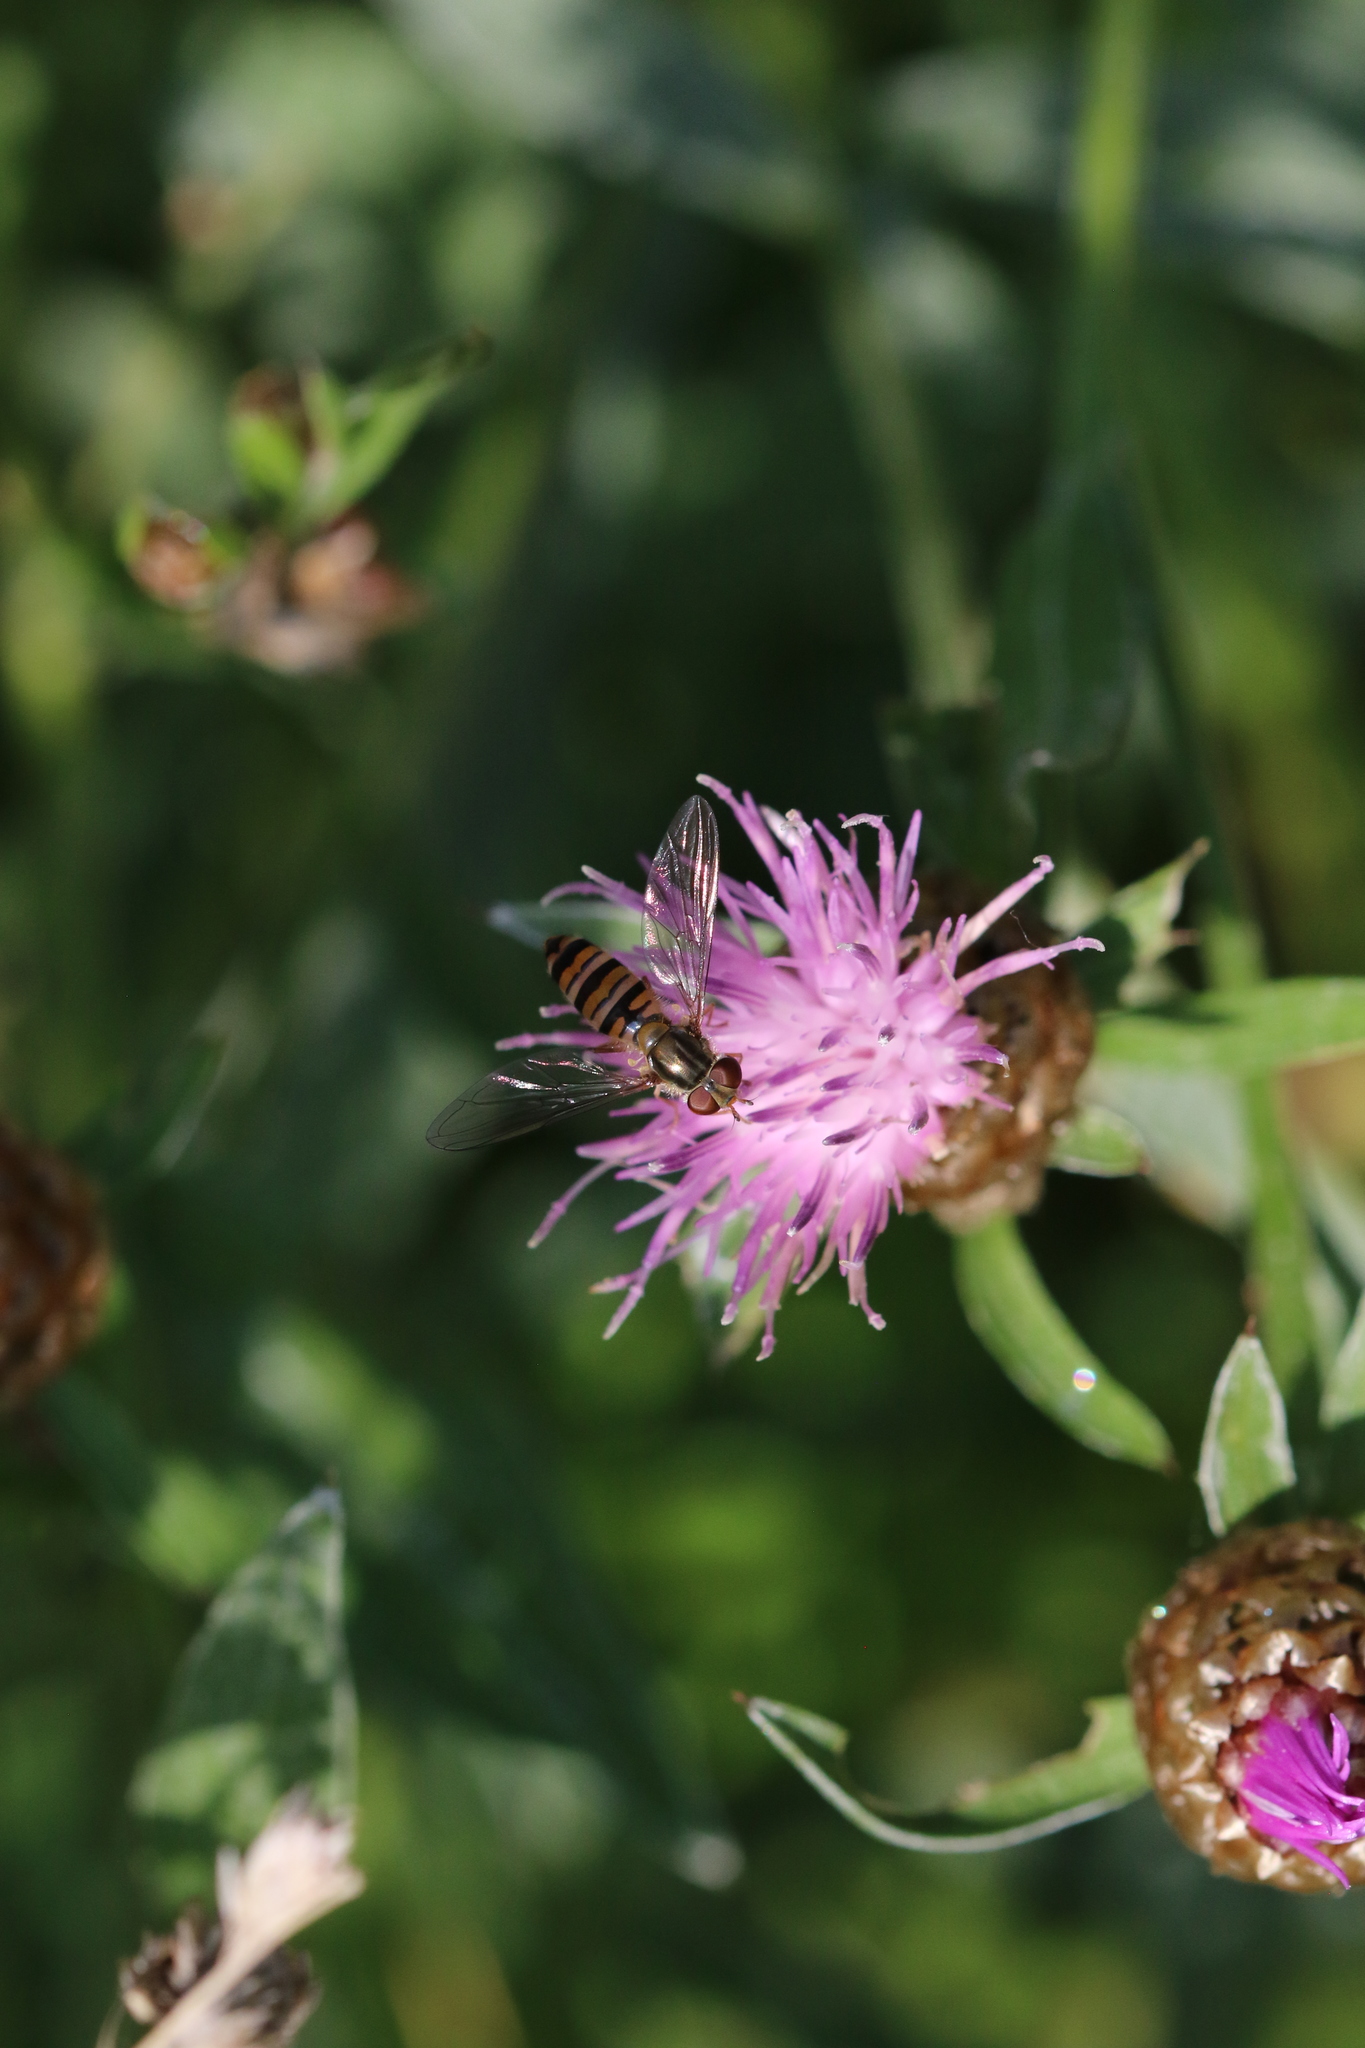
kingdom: Animalia
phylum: Arthropoda
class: Insecta
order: Diptera
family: Syrphidae
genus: Episyrphus
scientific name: Episyrphus balteatus
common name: Marmalade hoverfly
